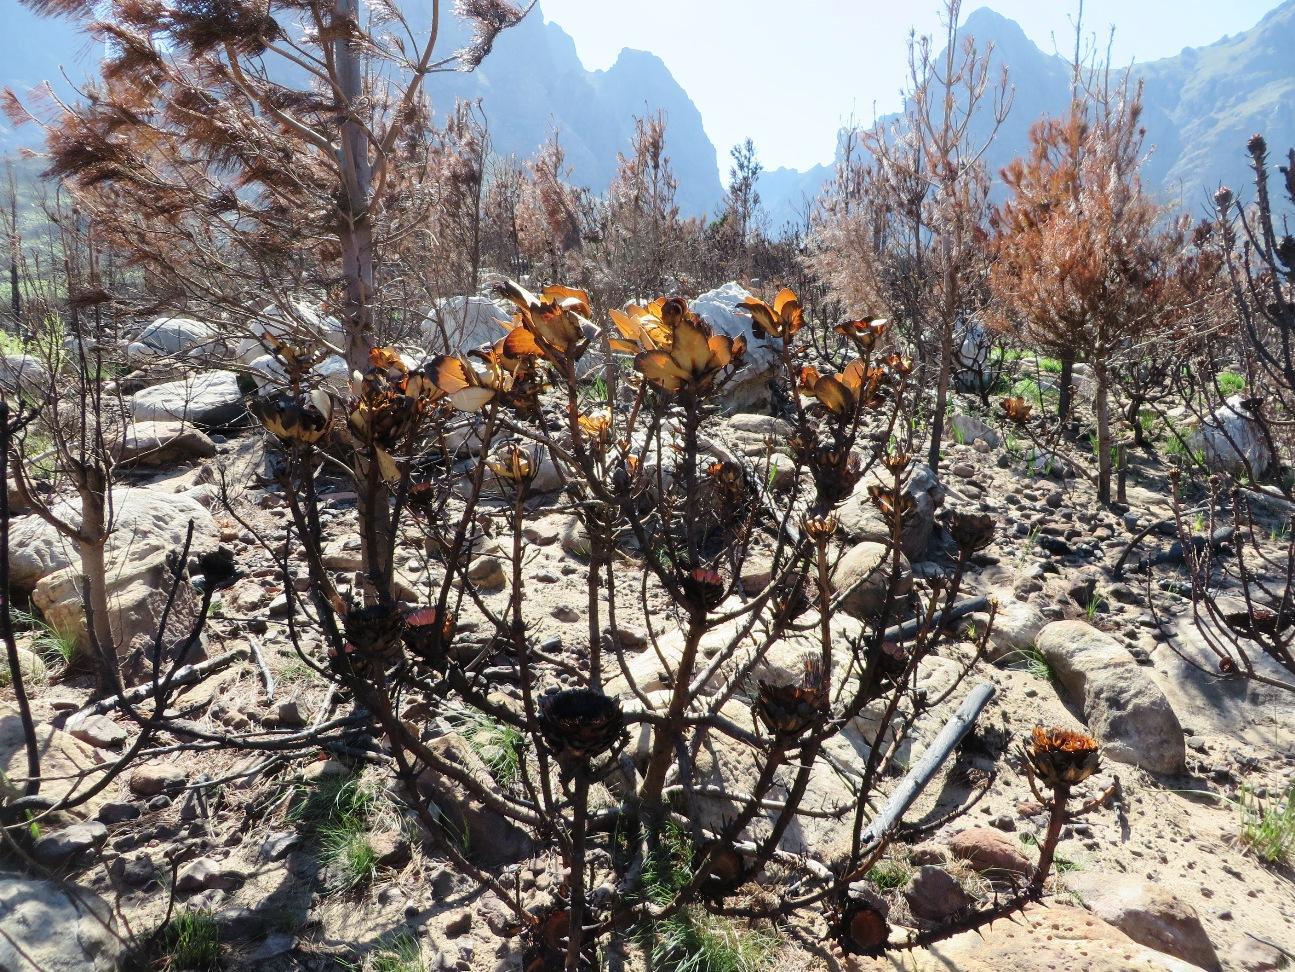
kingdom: Plantae
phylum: Tracheophyta
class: Magnoliopsida
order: Proteales
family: Proteaceae
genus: Protea
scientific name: Protea grandiceps
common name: Red sugarbush
